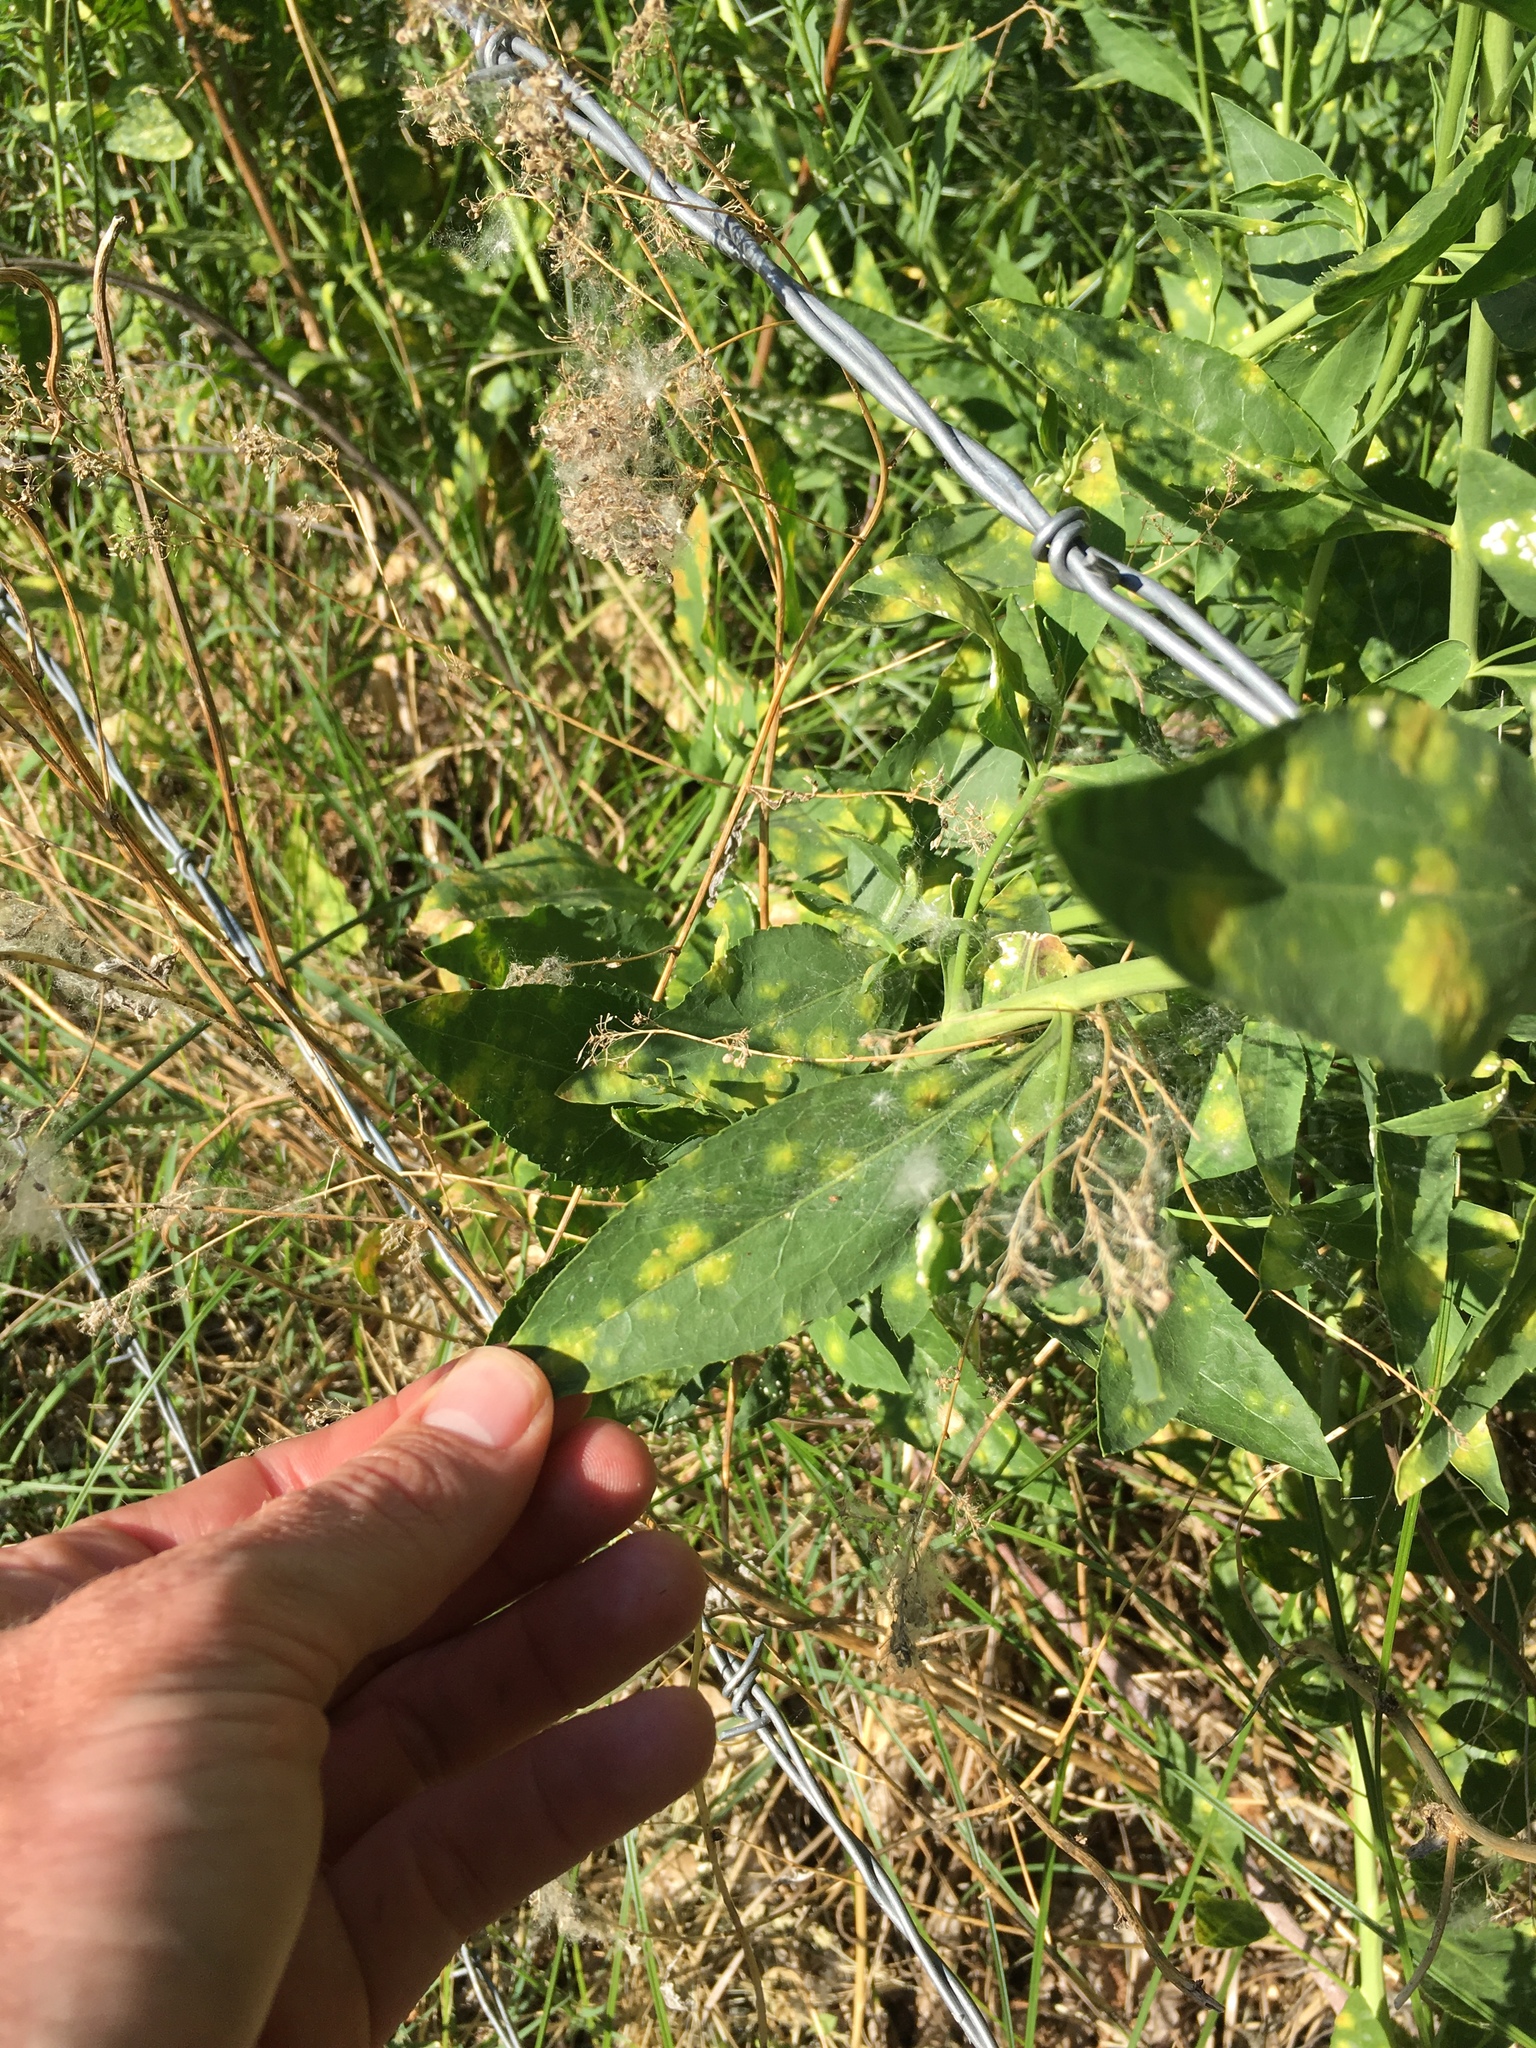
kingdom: Plantae
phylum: Tracheophyta
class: Magnoliopsida
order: Brassicales
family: Brassicaceae
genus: Lepidium
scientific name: Lepidium latifolium
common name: Dittander
